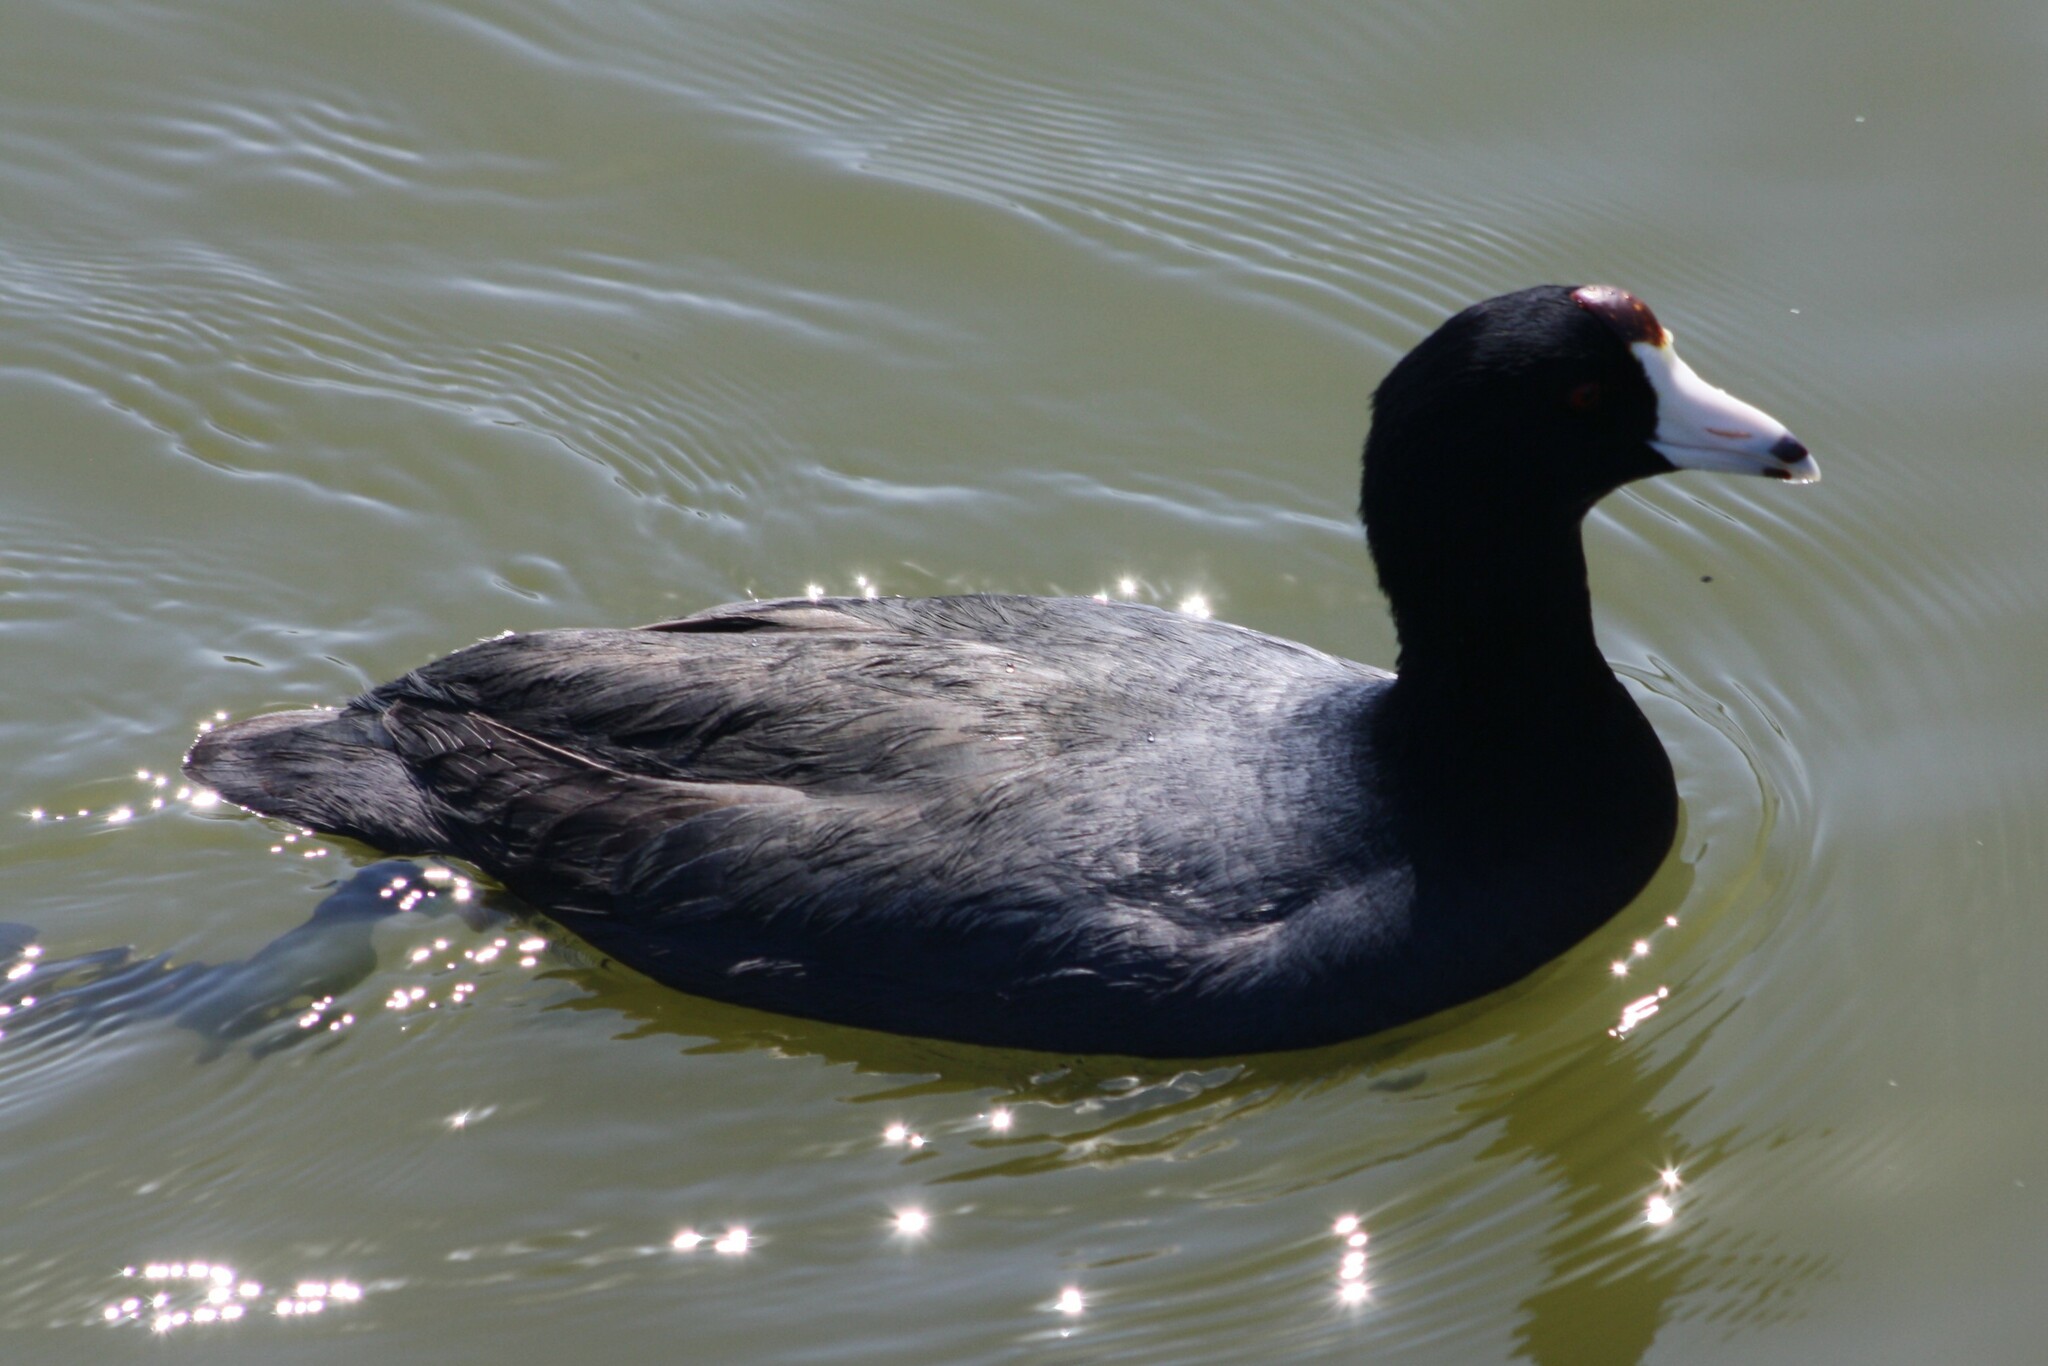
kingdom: Animalia
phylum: Chordata
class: Aves
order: Gruiformes
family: Rallidae
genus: Fulica
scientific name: Fulica americana
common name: American coot
